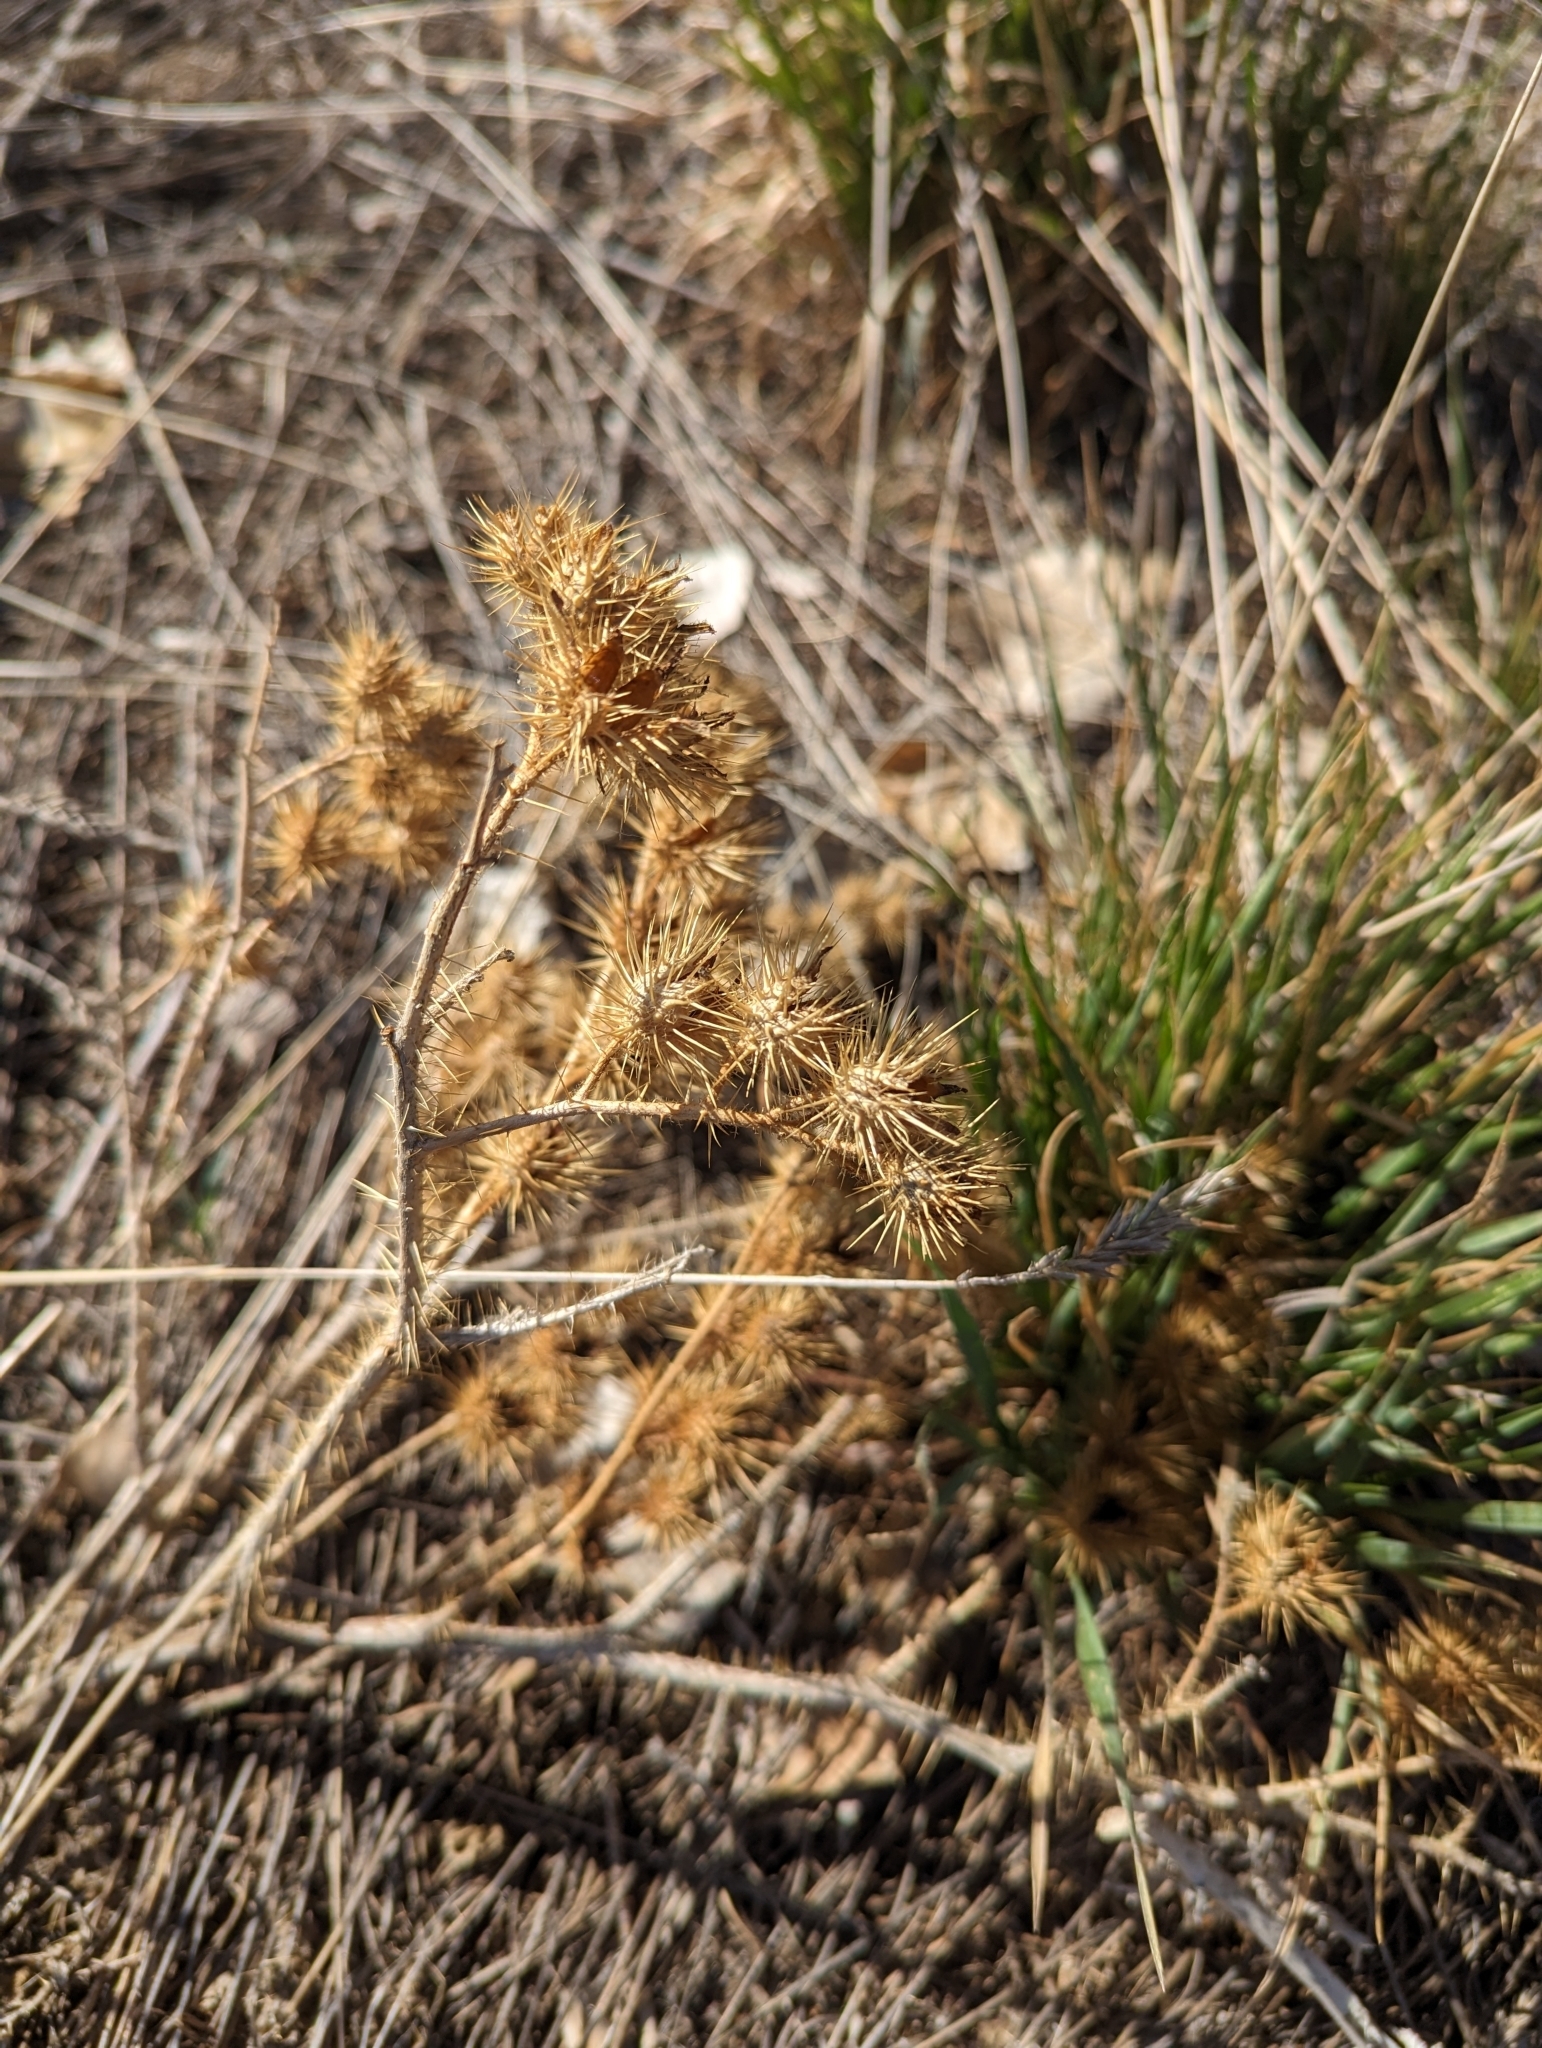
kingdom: Plantae
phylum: Tracheophyta
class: Magnoliopsida
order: Solanales
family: Solanaceae
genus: Solanum
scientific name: Solanum angustifolium
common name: Buffalobur nightshade
